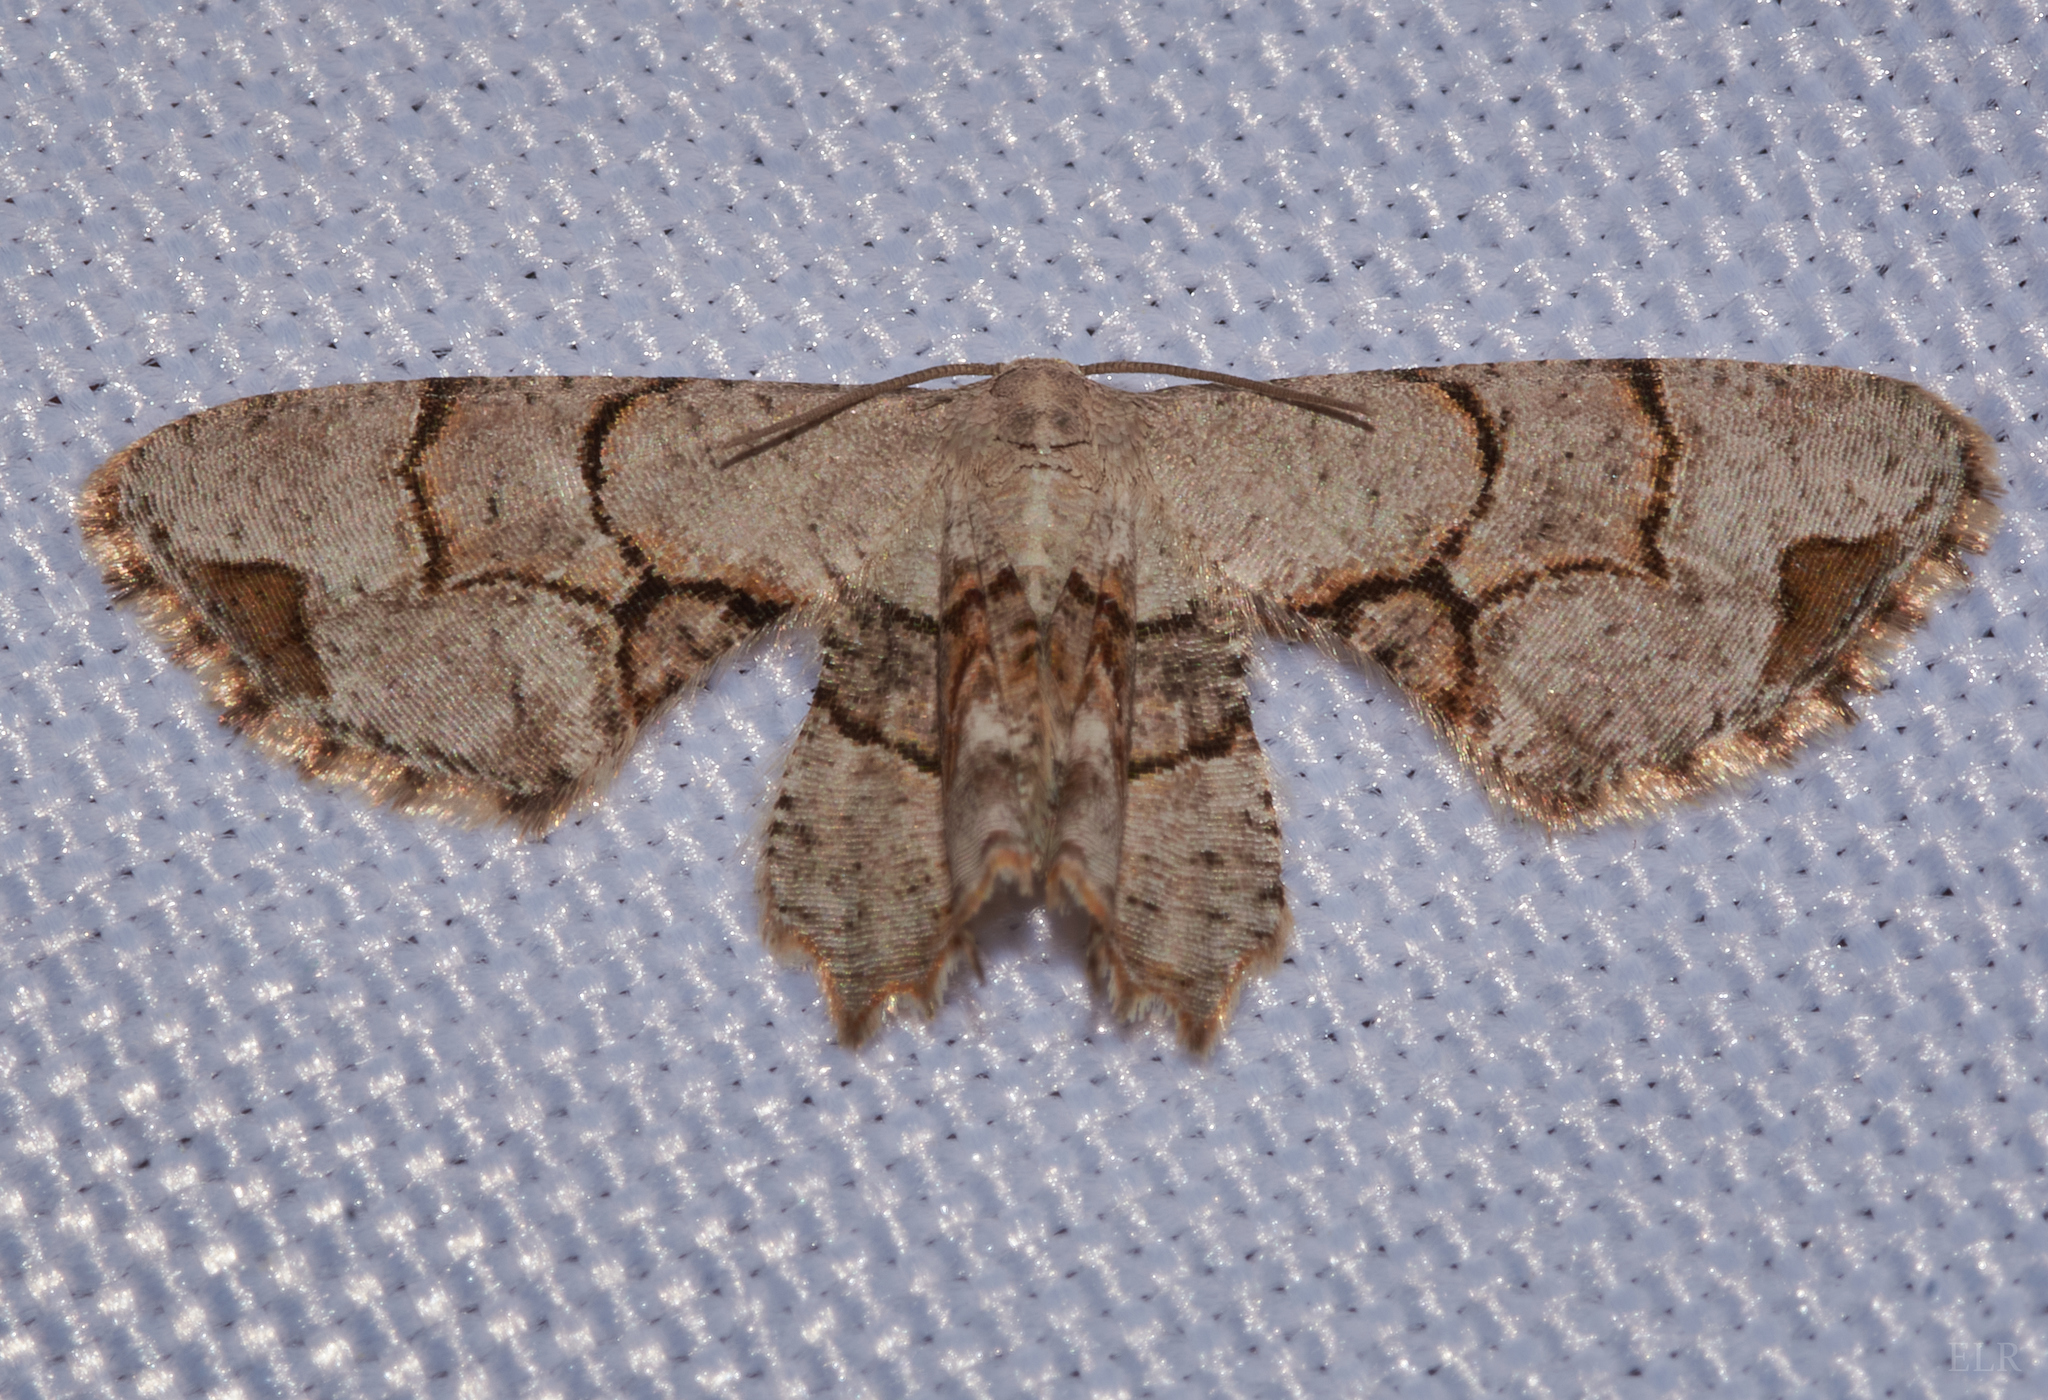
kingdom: Animalia
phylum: Arthropoda
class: Insecta
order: Lepidoptera
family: Uraniidae
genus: Epiplema
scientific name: Epiplema Callizzia amorata
